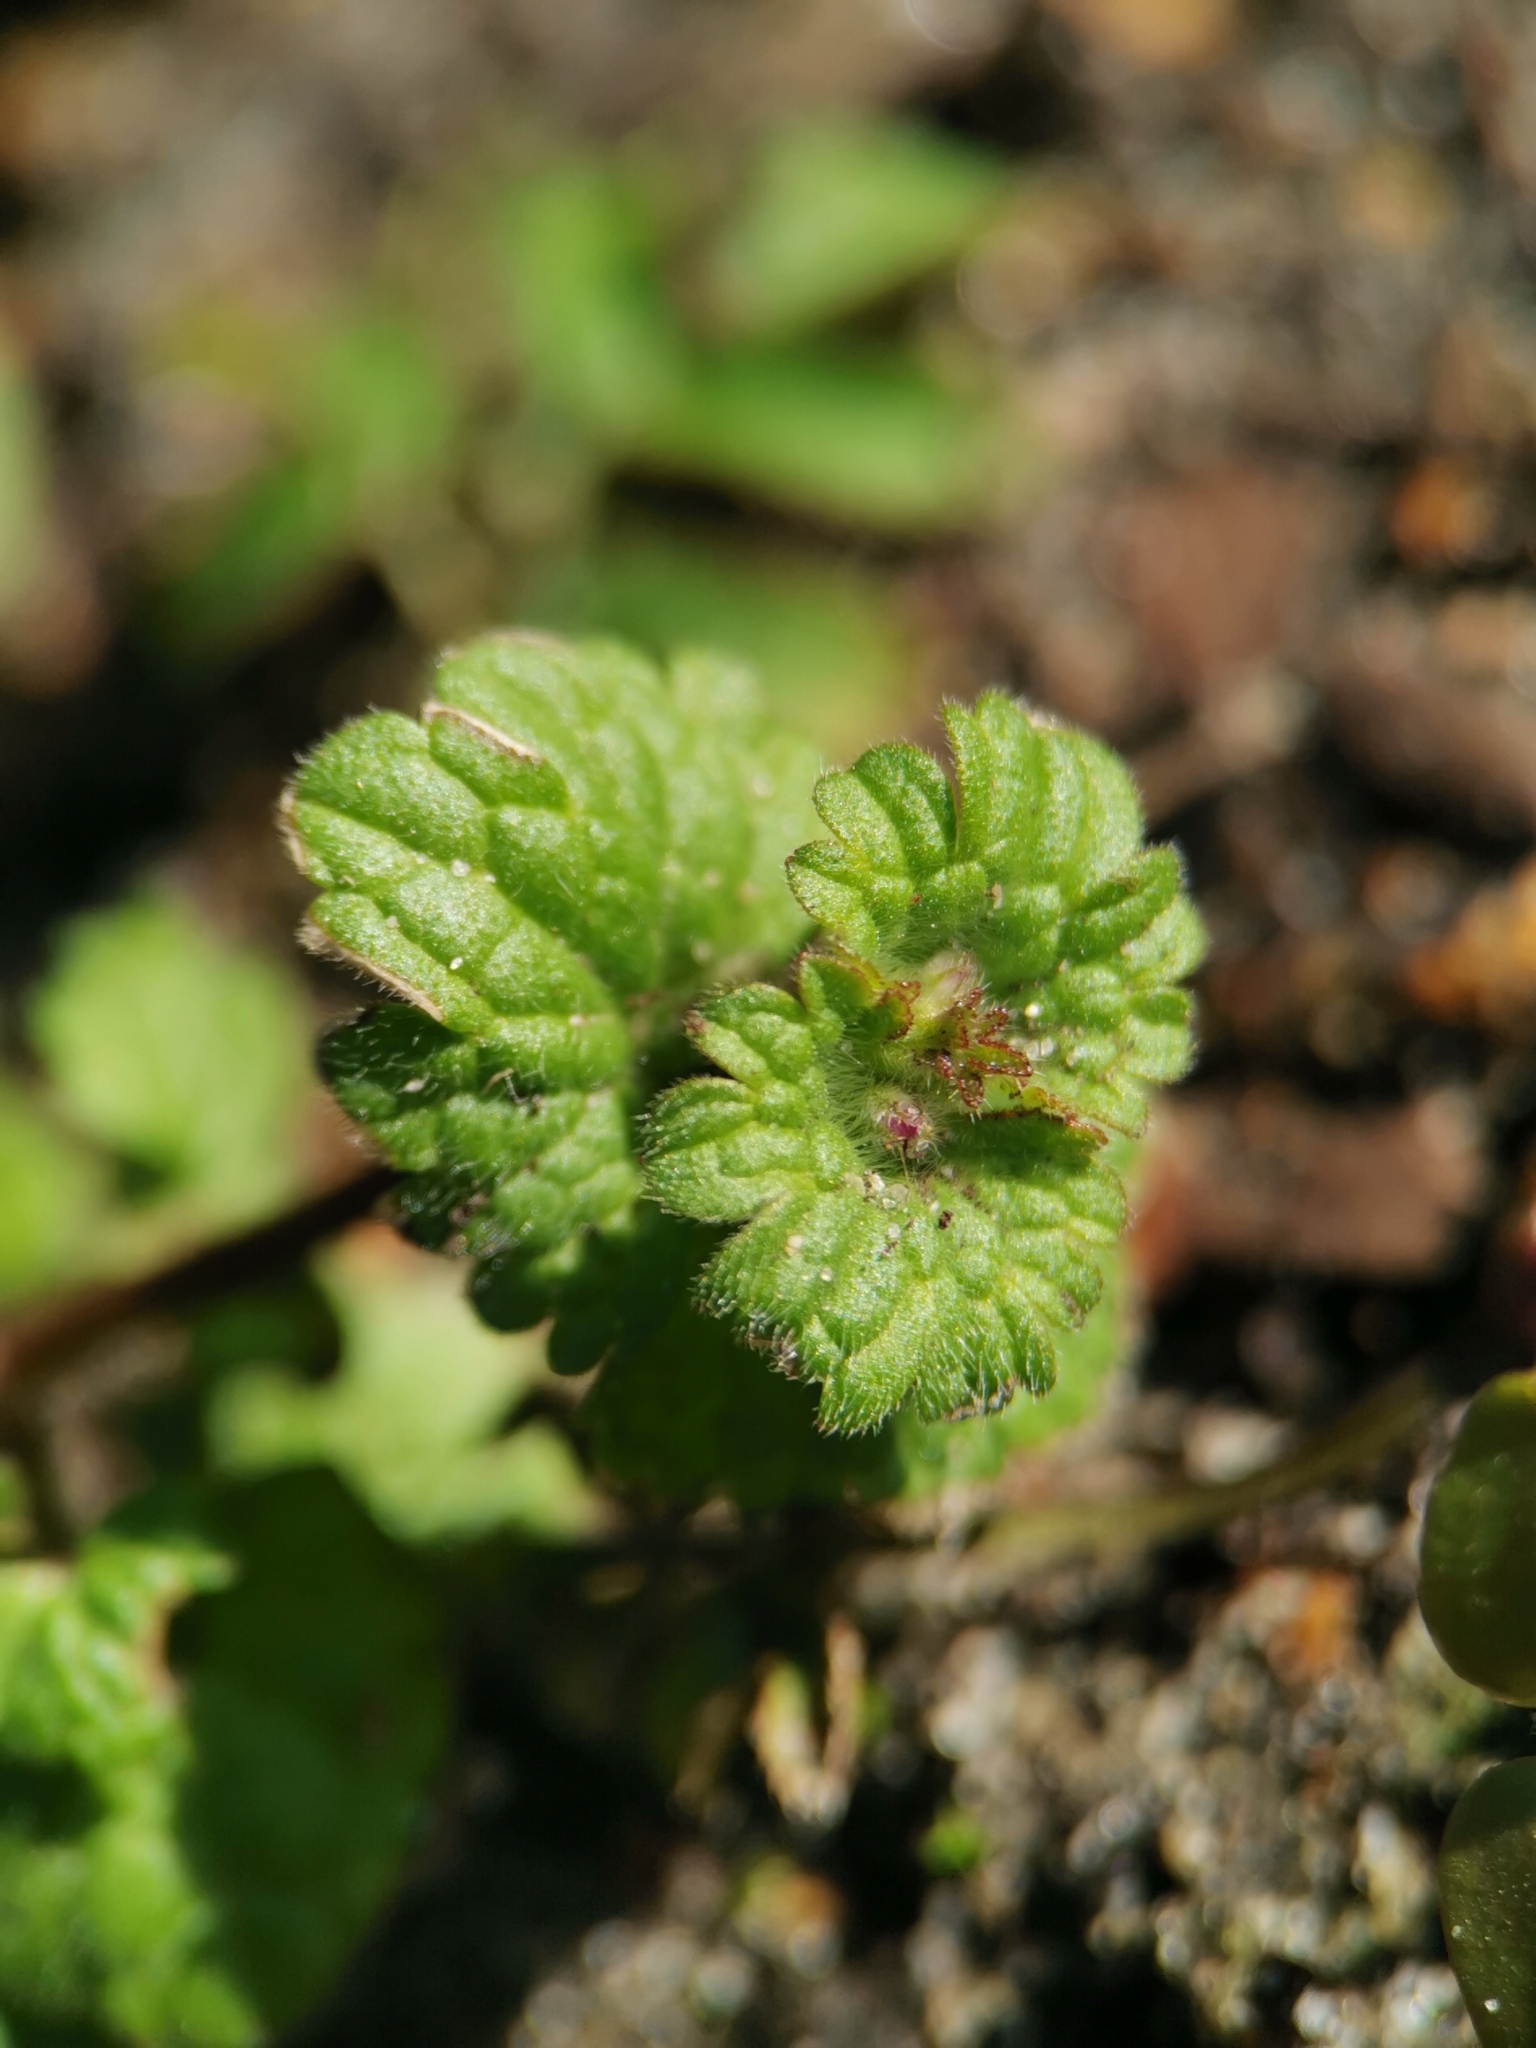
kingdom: Plantae
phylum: Tracheophyta
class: Magnoliopsida
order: Lamiales
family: Lamiaceae
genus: Lamium
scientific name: Lamium amplexicaule
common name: Henbit dead-nettle
